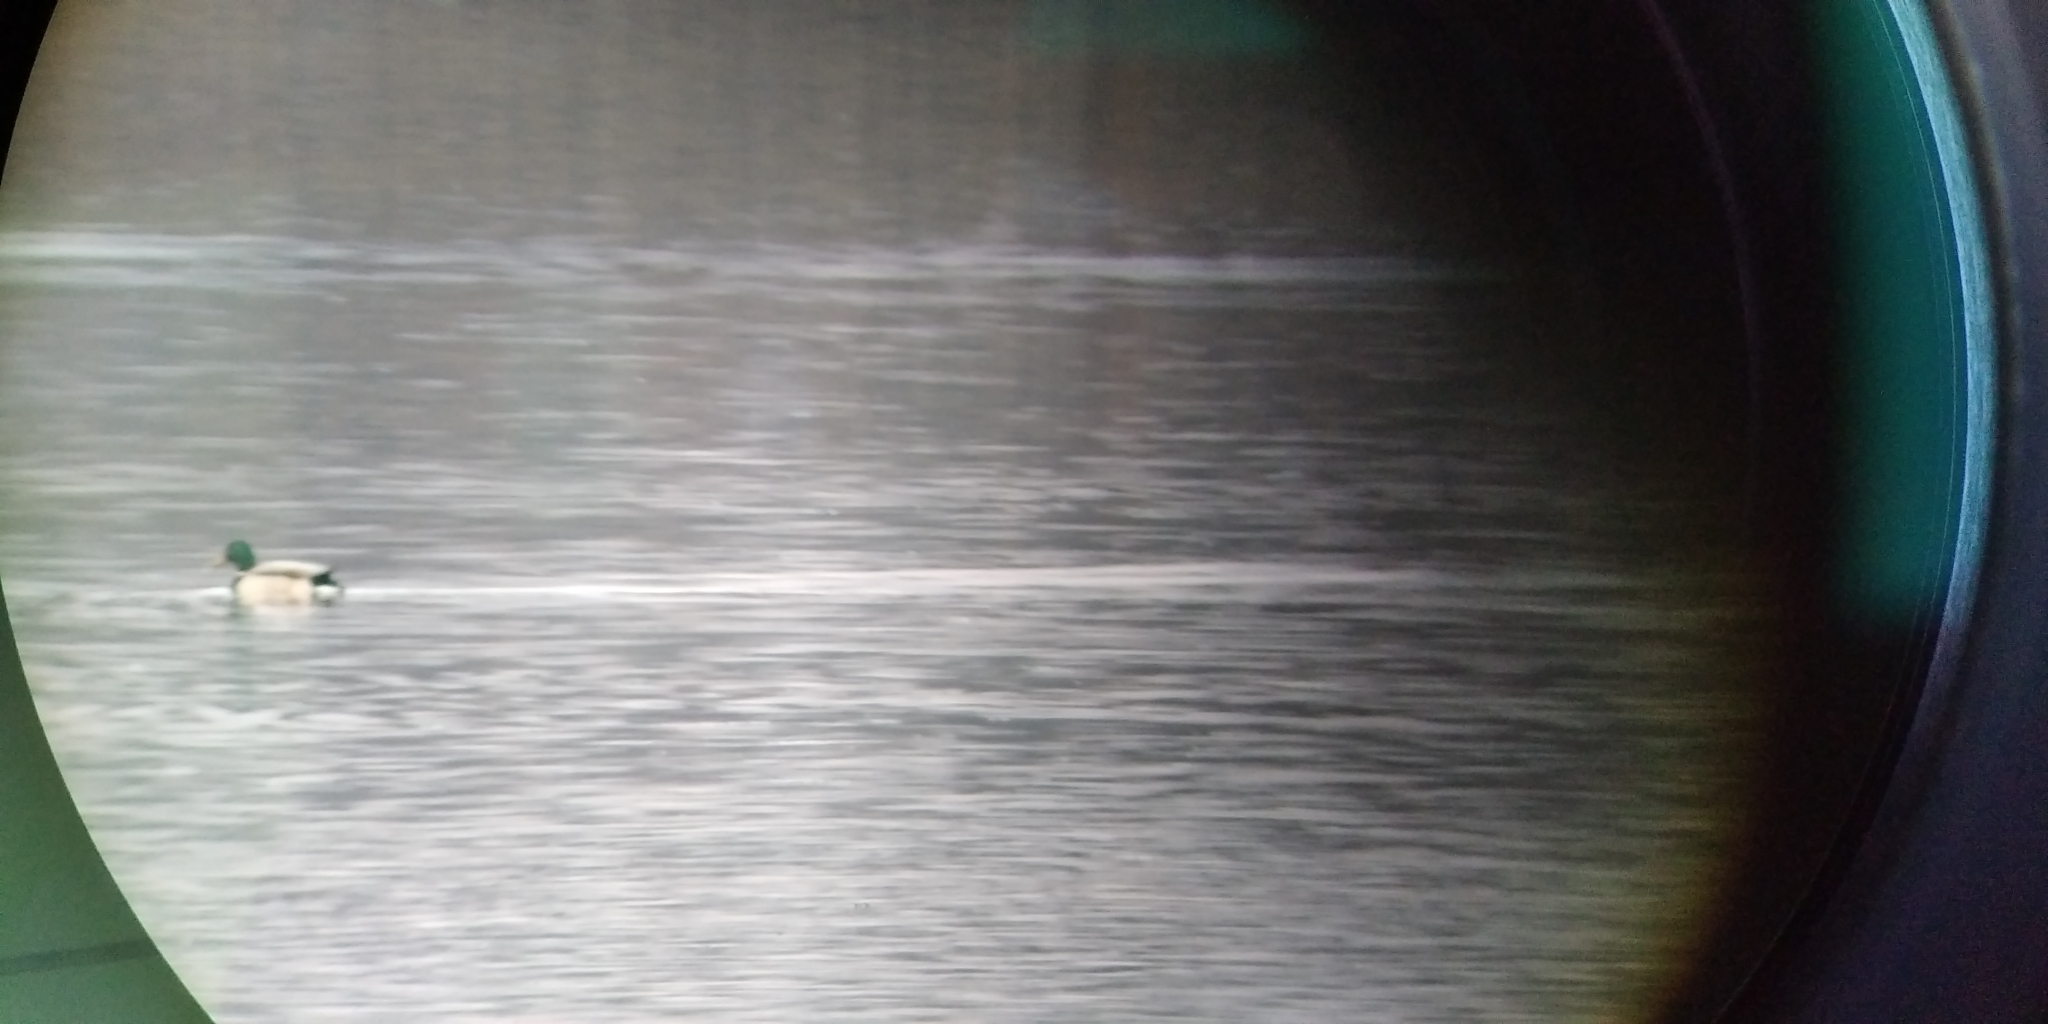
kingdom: Animalia
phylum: Chordata
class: Aves
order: Anseriformes
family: Anatidae
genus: Anas
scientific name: Anas platyrhynchos
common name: Mallard
